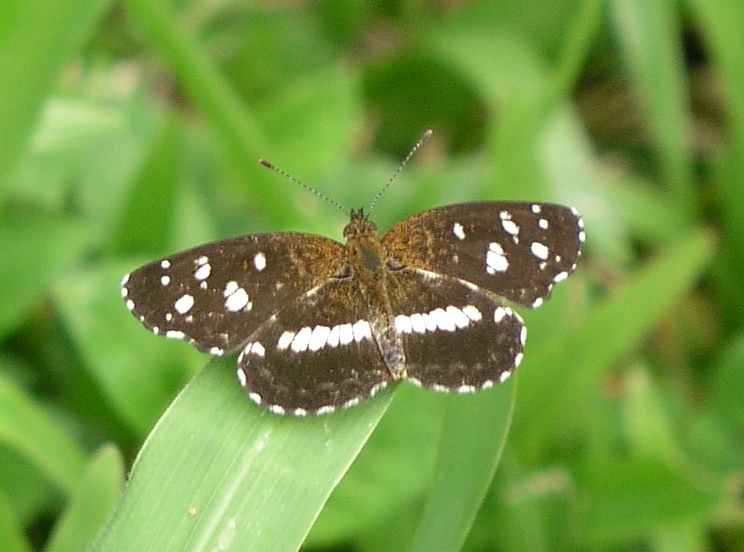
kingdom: Animalia
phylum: Arthropoda
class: Insecta
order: Lepidoptera
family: Nymphalidae
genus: Ortilia
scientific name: Ortilia ithra
